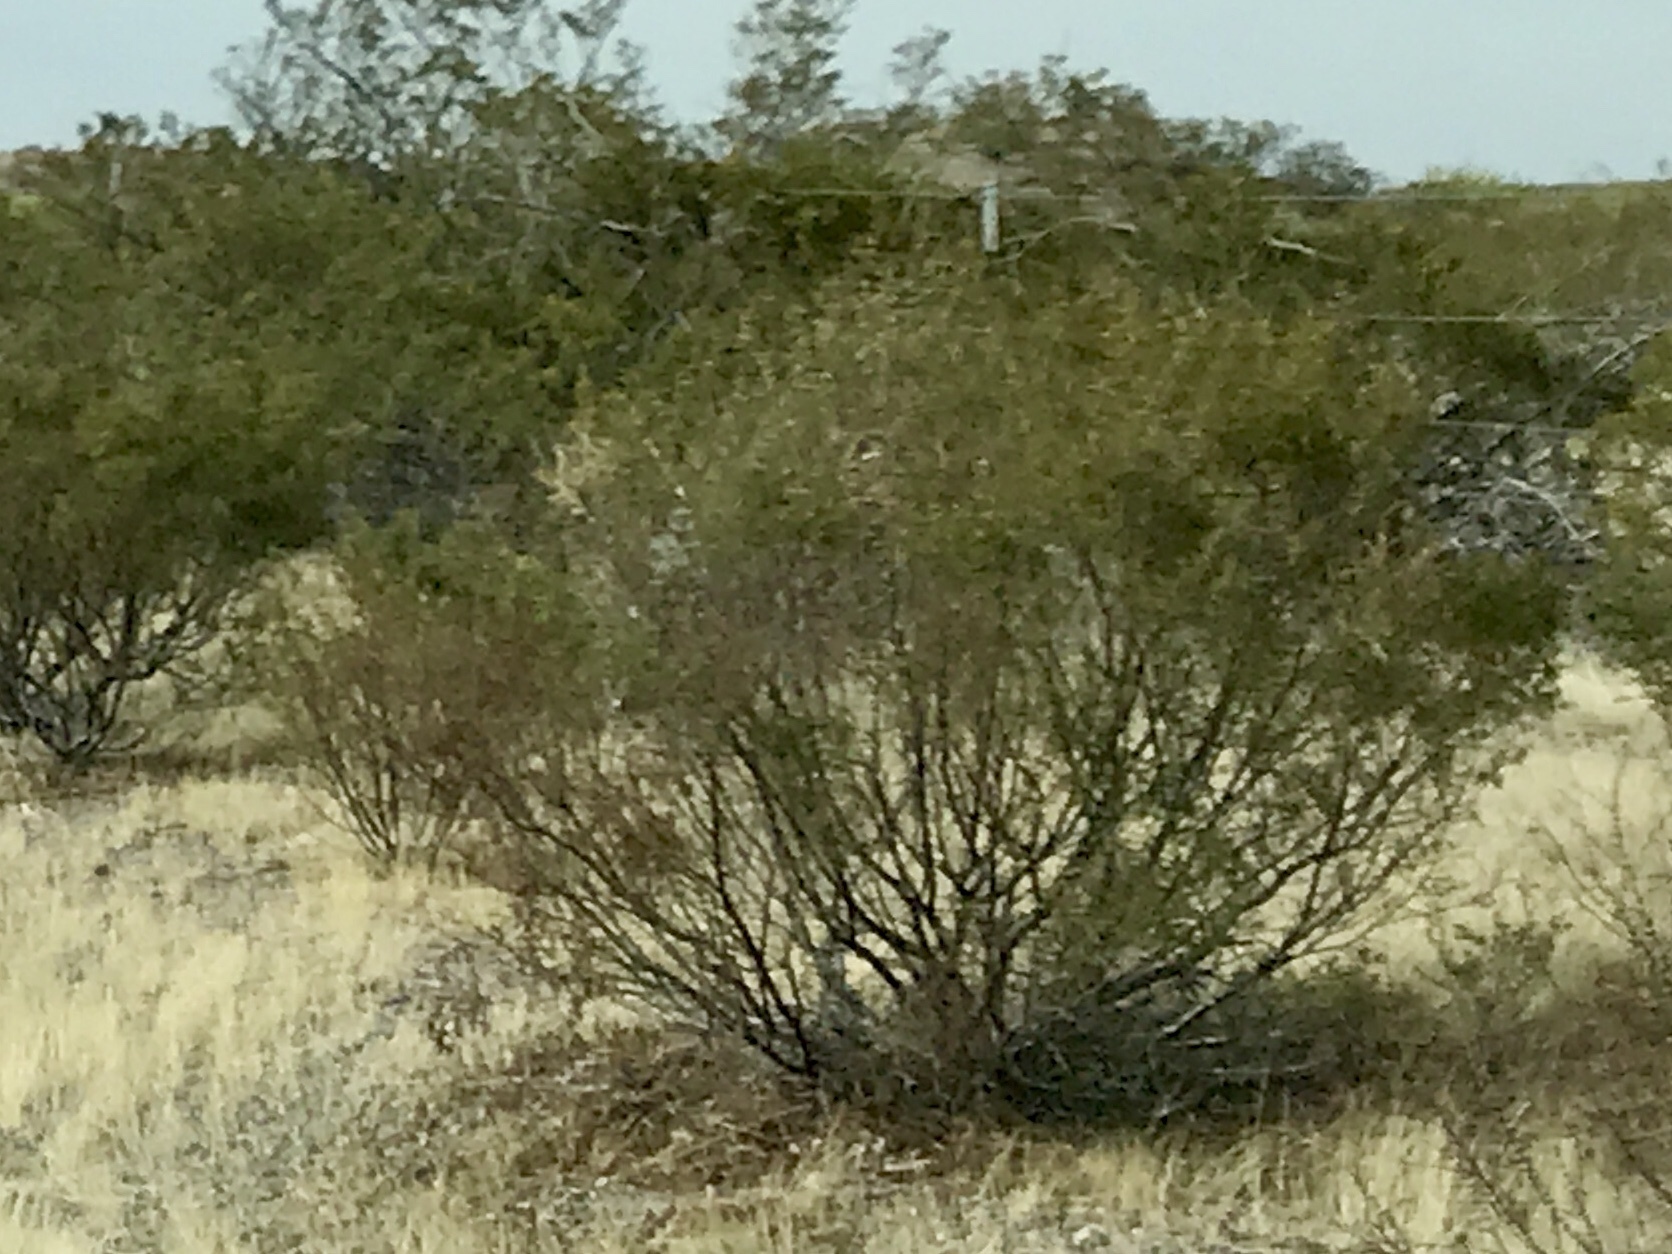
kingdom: Plantae
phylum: Tracheophyta
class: Magnoliopsida
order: Zygophyllales
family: Zygophyllaceae
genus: Larrea
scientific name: Larrea tridentata
